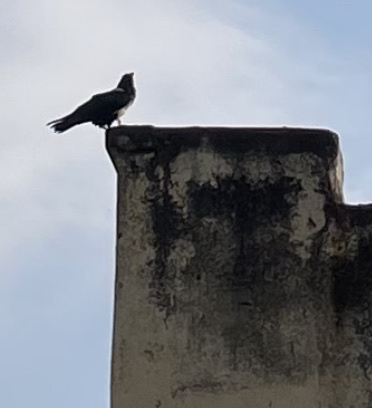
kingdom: Animalia
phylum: Chordata
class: Aves
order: Passeriformes
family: Corvidae
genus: Corvus
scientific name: Corvus albus
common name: Pied crow
